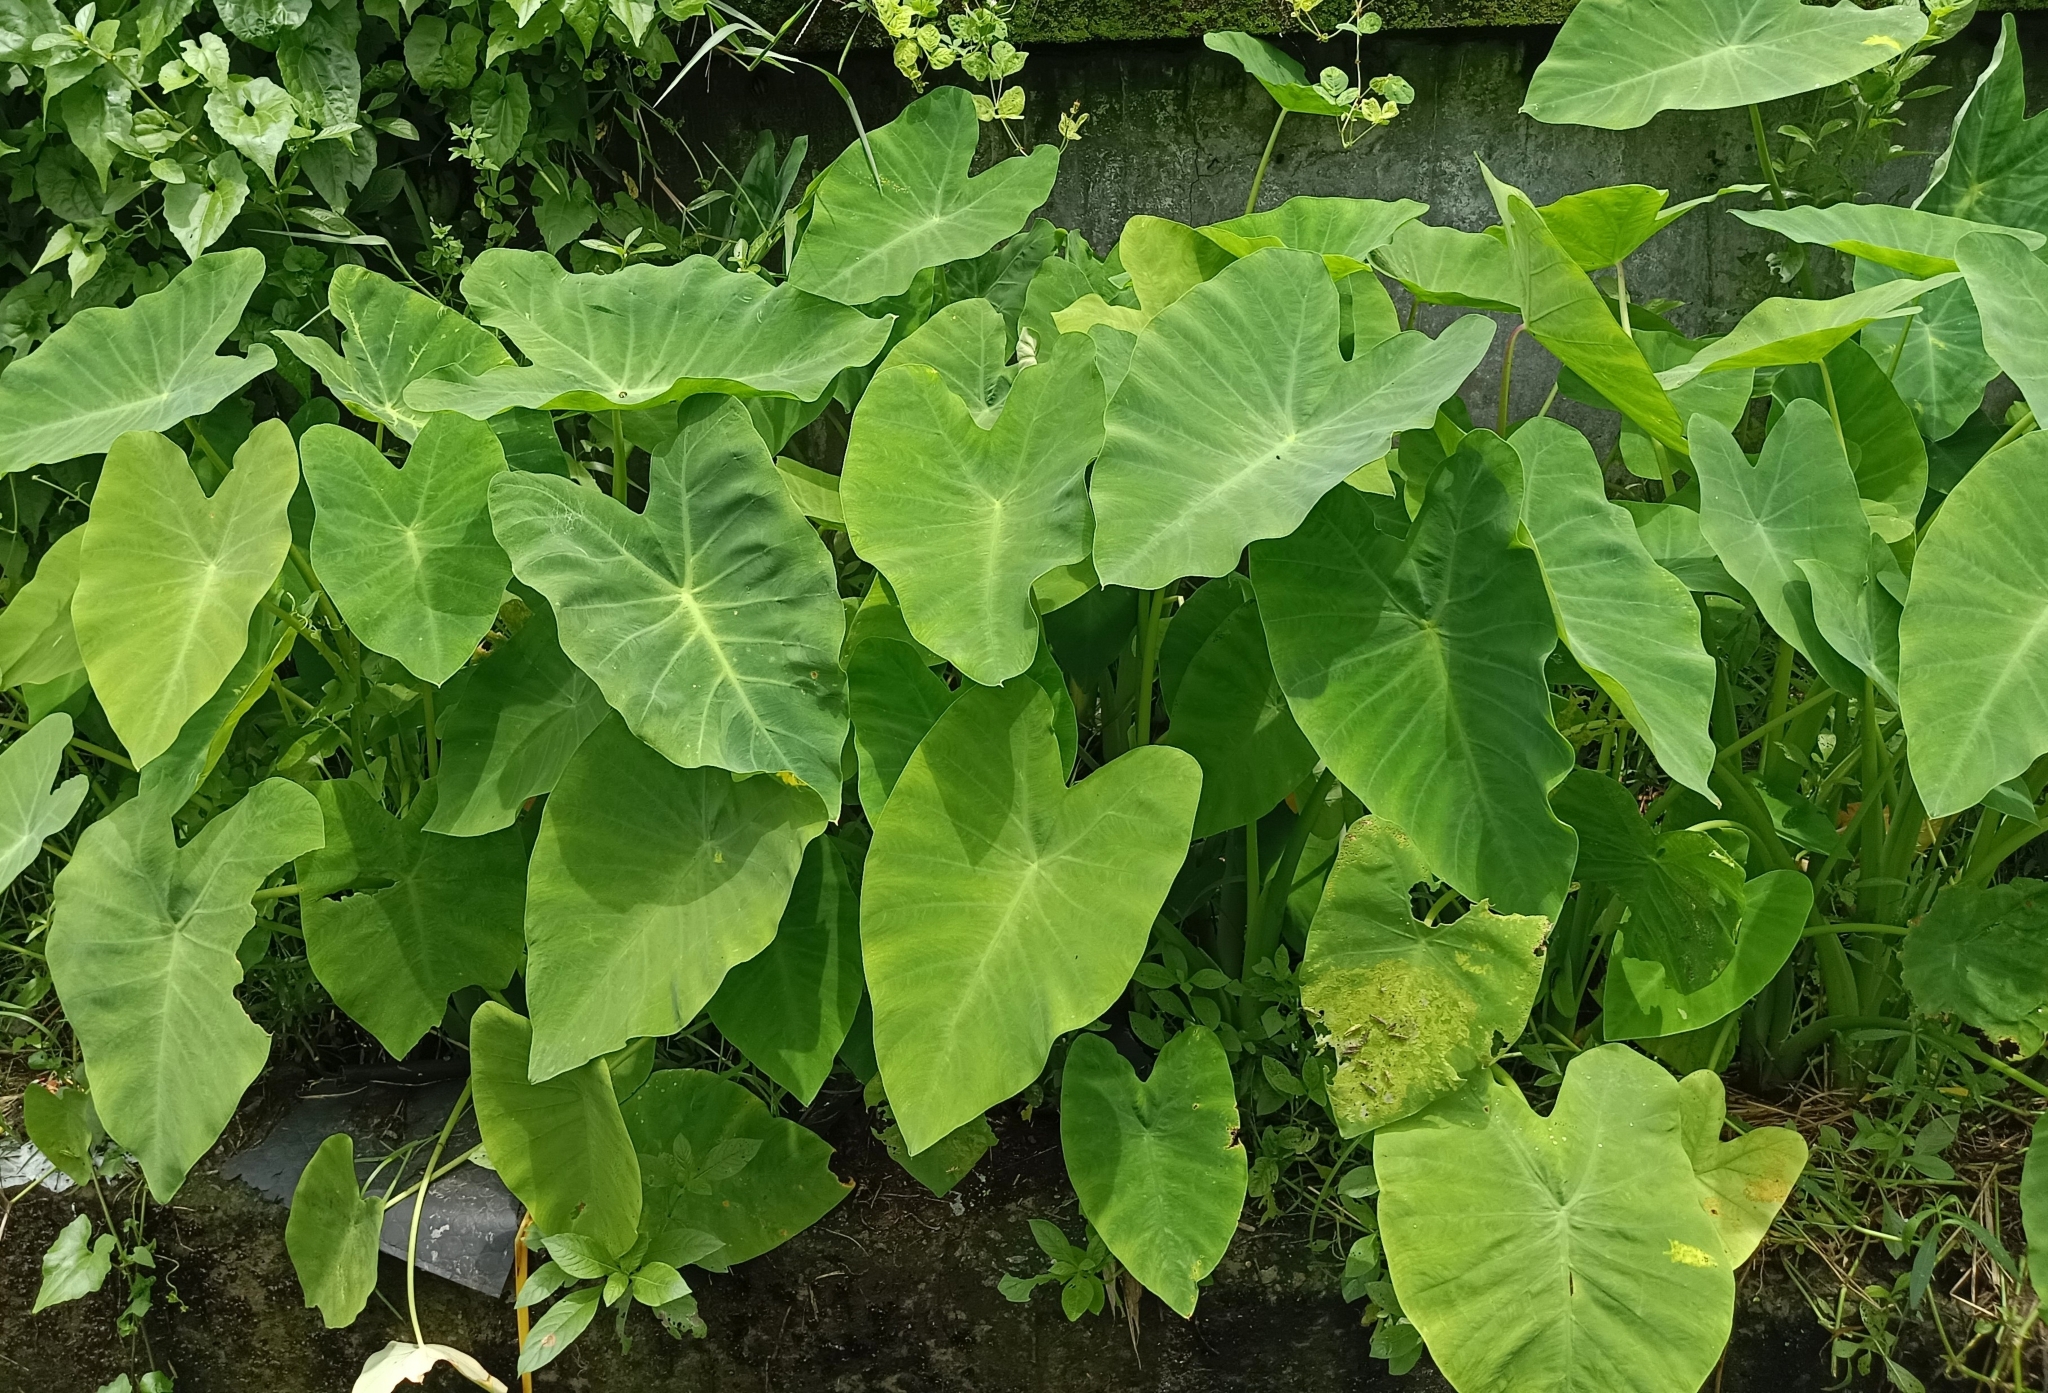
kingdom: Plantae
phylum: Tracheophyta
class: Liliopsida
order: Alismatales
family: Araceae
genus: Colocasia
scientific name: Colocasia esculenta
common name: Taro
